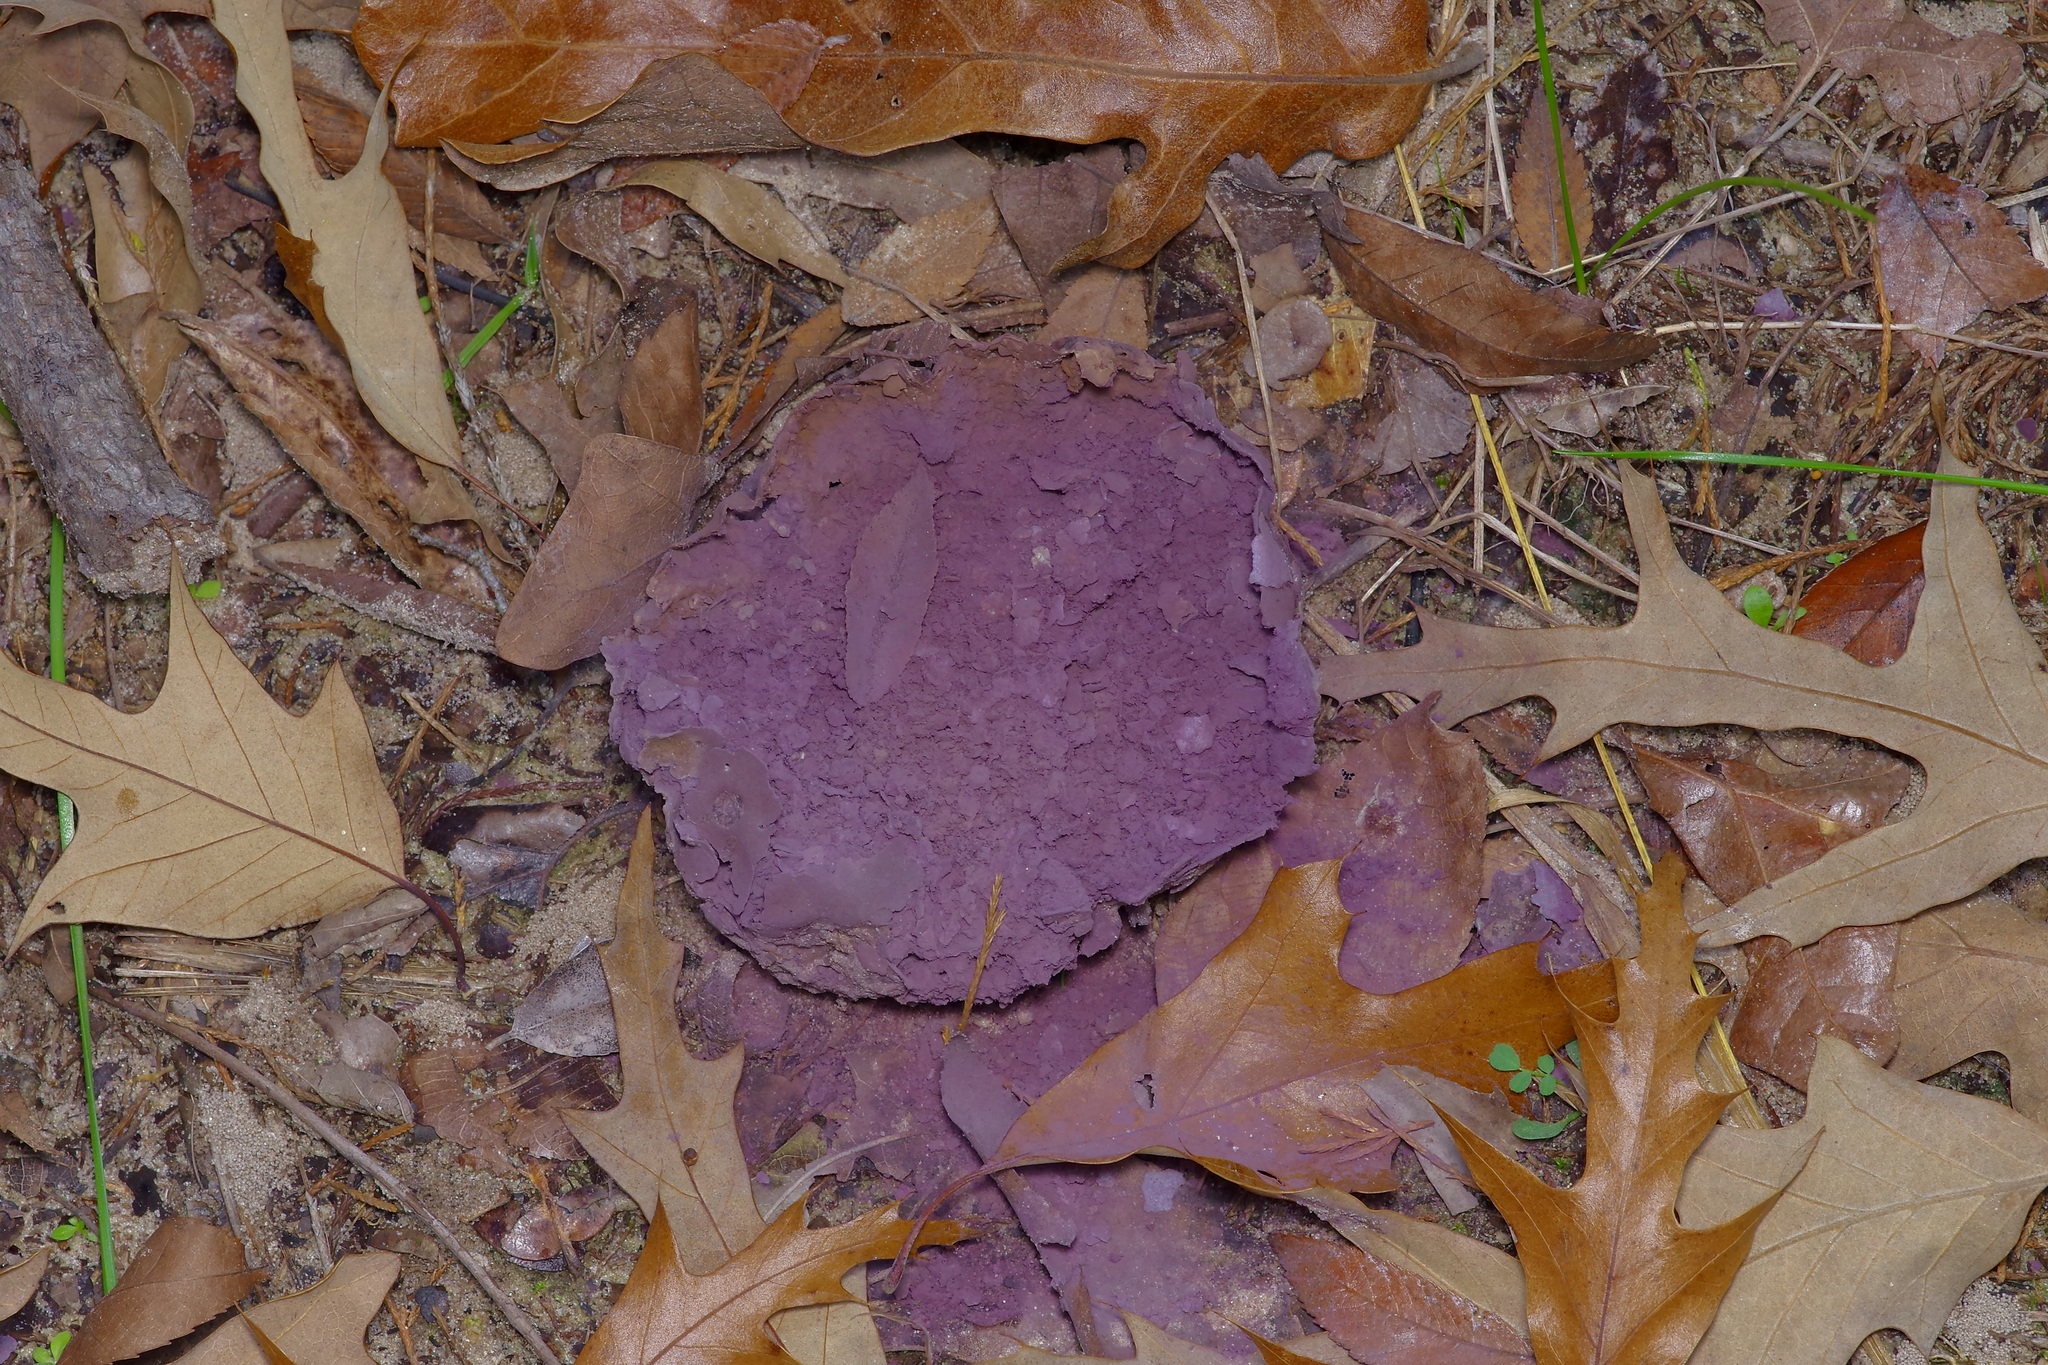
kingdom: Fungi
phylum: Basidiomycota
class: Agaricomycetes
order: Agaricales
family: Lycoperdaceae
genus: Calvatia
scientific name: Calvatia cyathiformis
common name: Purple-spored puffball
